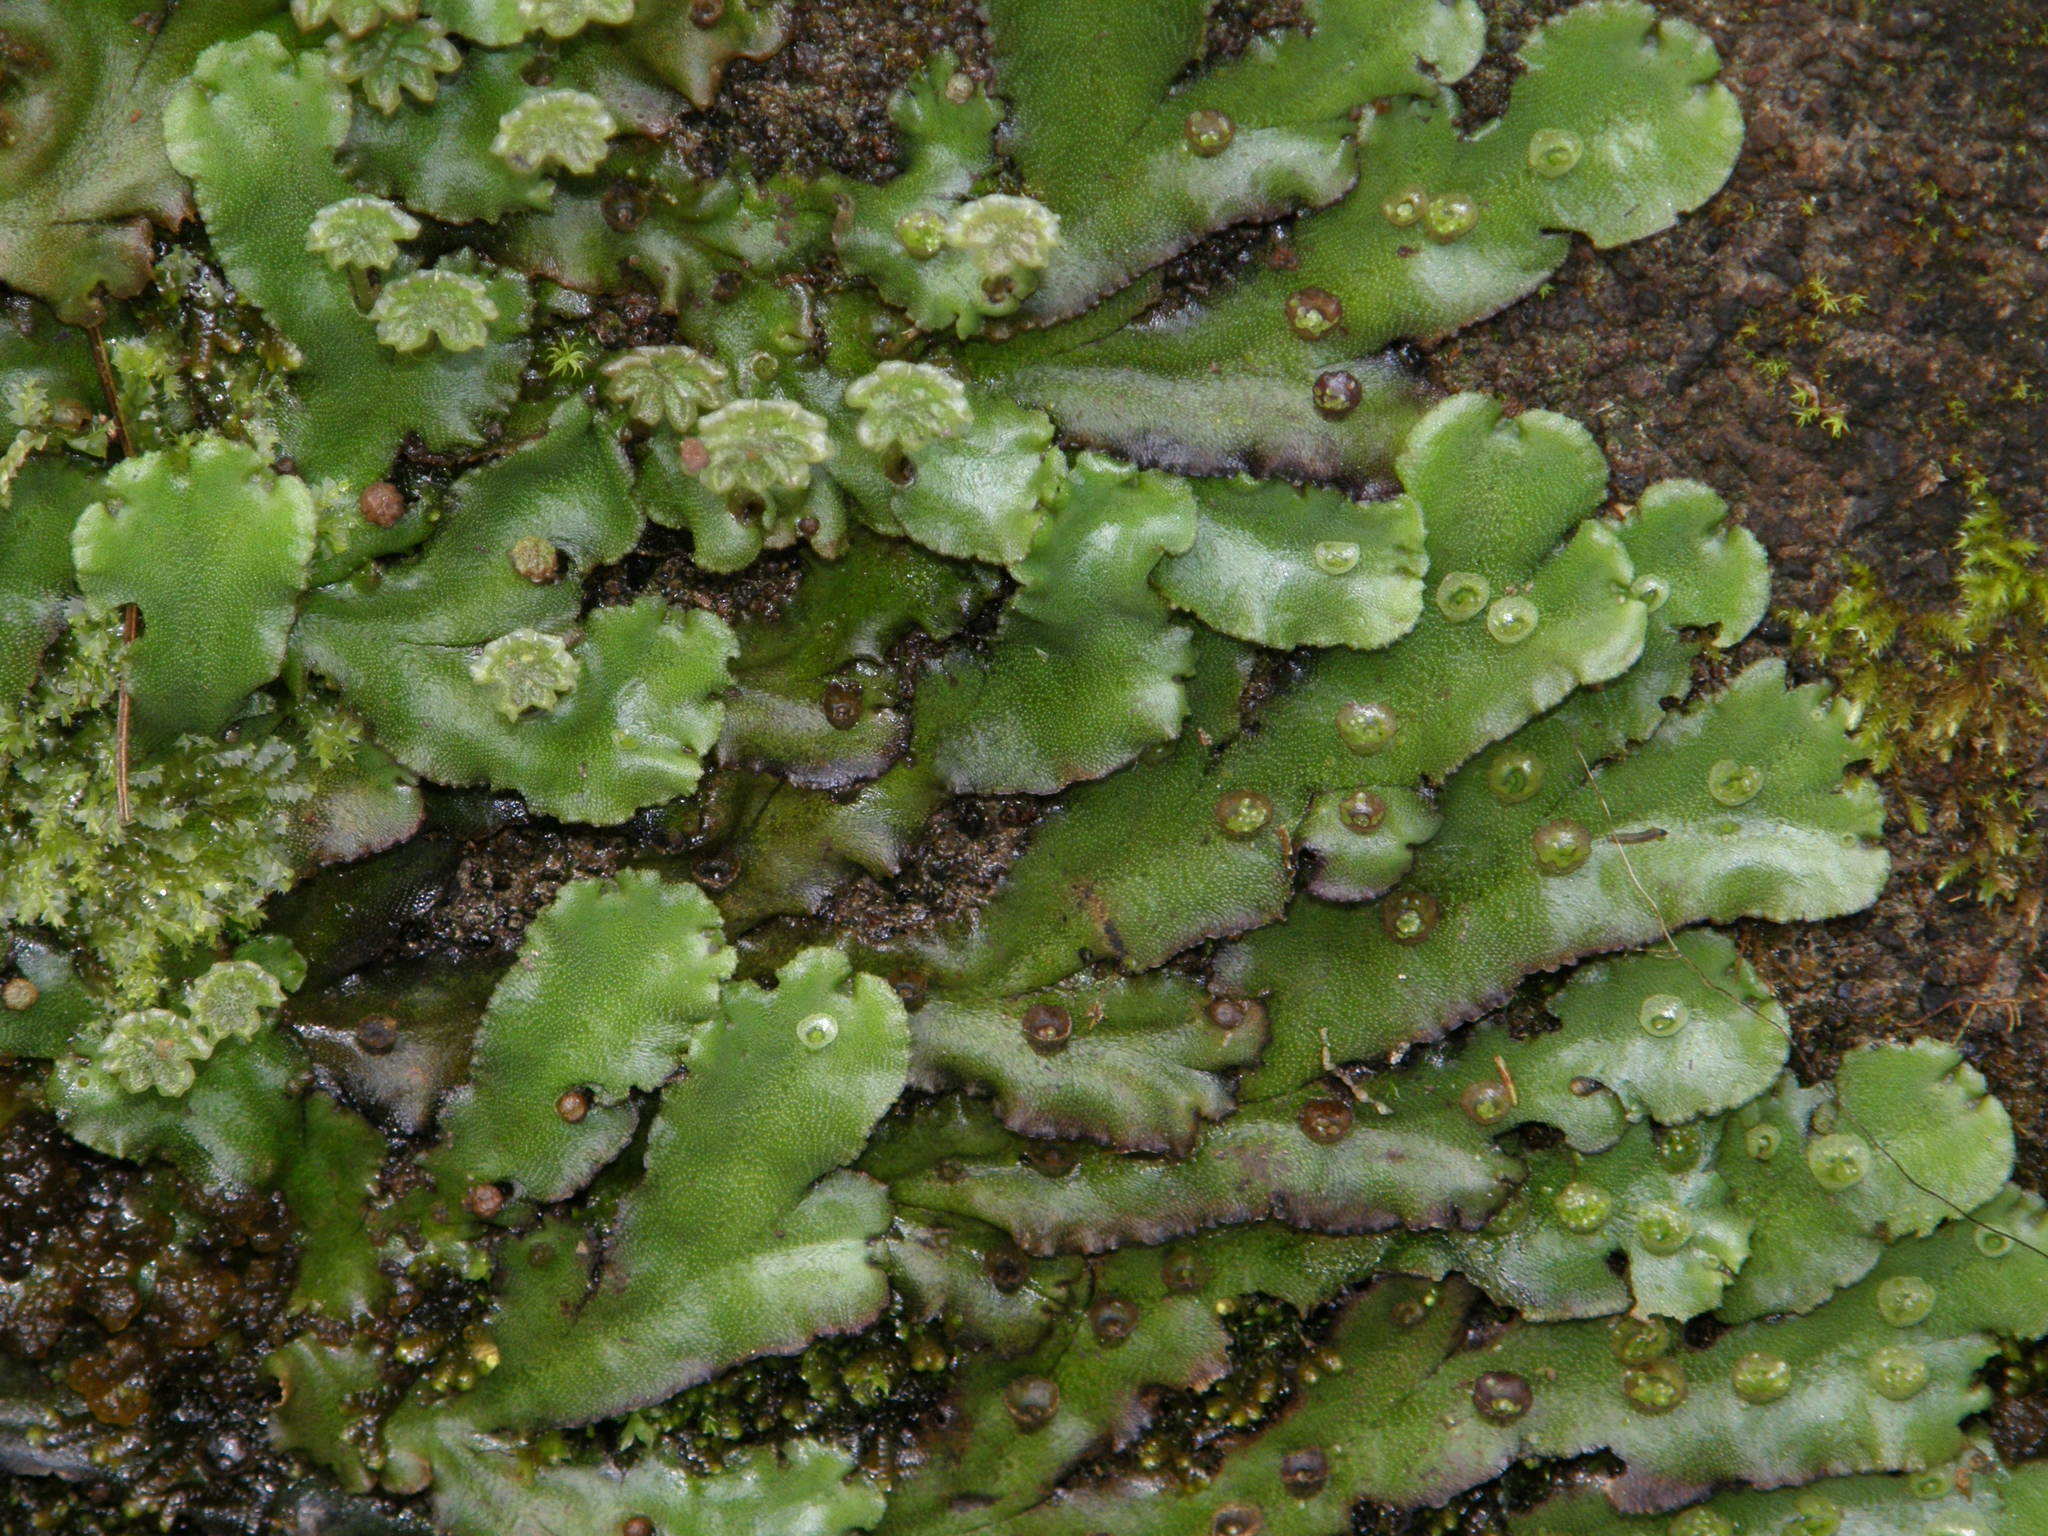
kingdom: Plantae
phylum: Marchantiophyta
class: Marchantiopsida
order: Marchantiales
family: Marchantiaceae
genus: Marchantia
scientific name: Marchantia polymorpha
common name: Common liverwort
